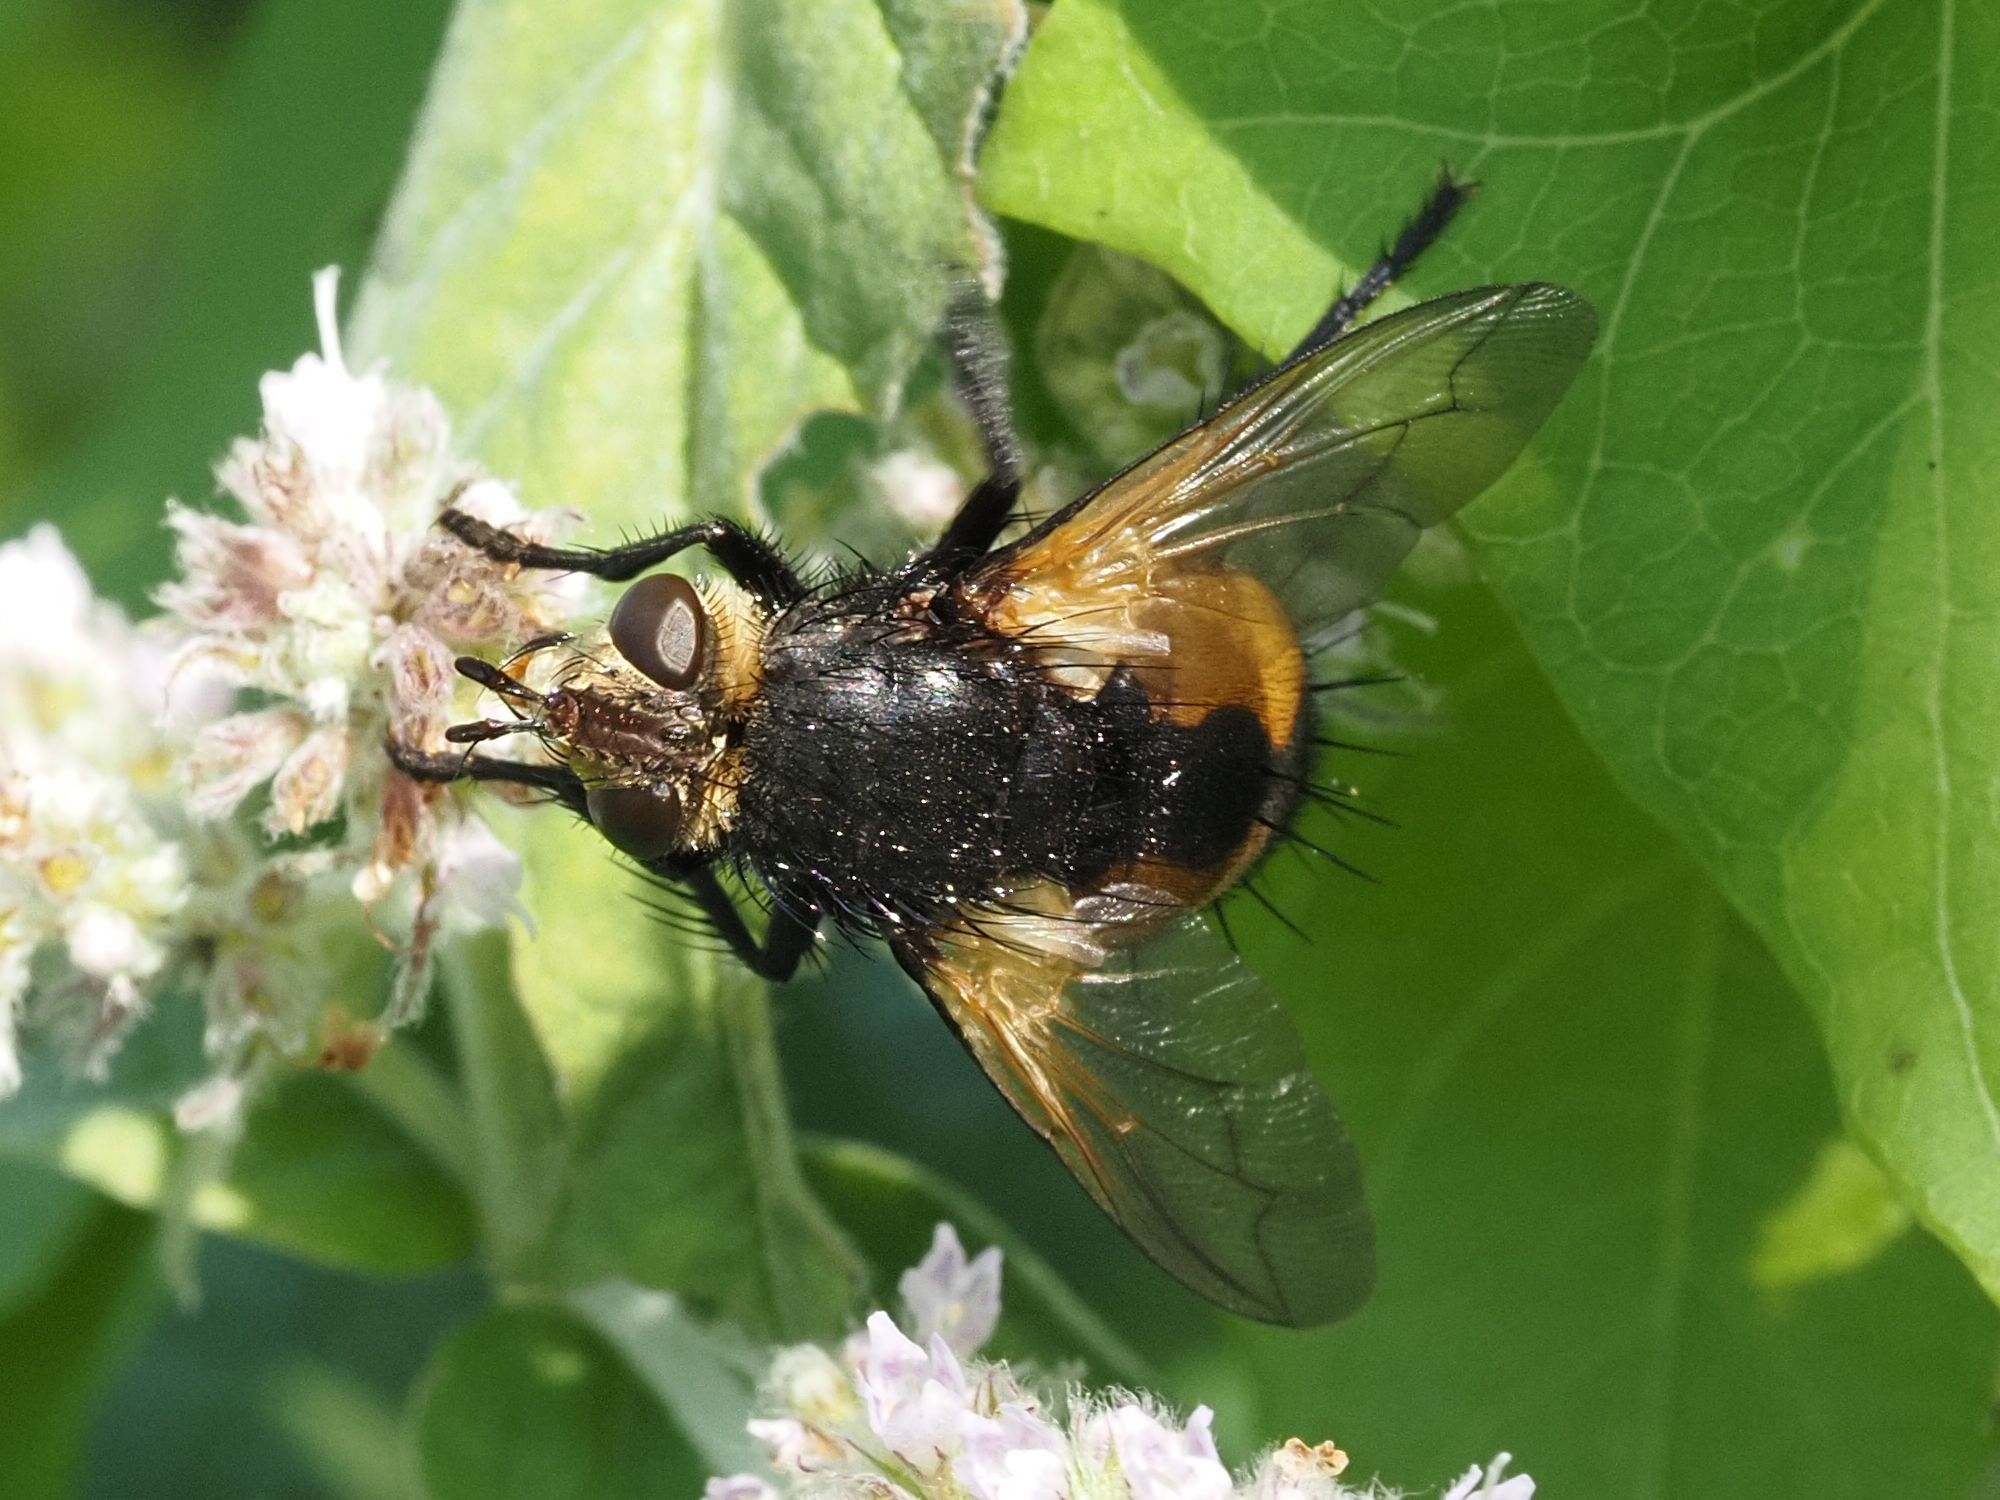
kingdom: Animalia
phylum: Arthropoda
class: Insecta
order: Diptera
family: Tachinidae
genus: Nowickia
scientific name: Nowickia ferox
